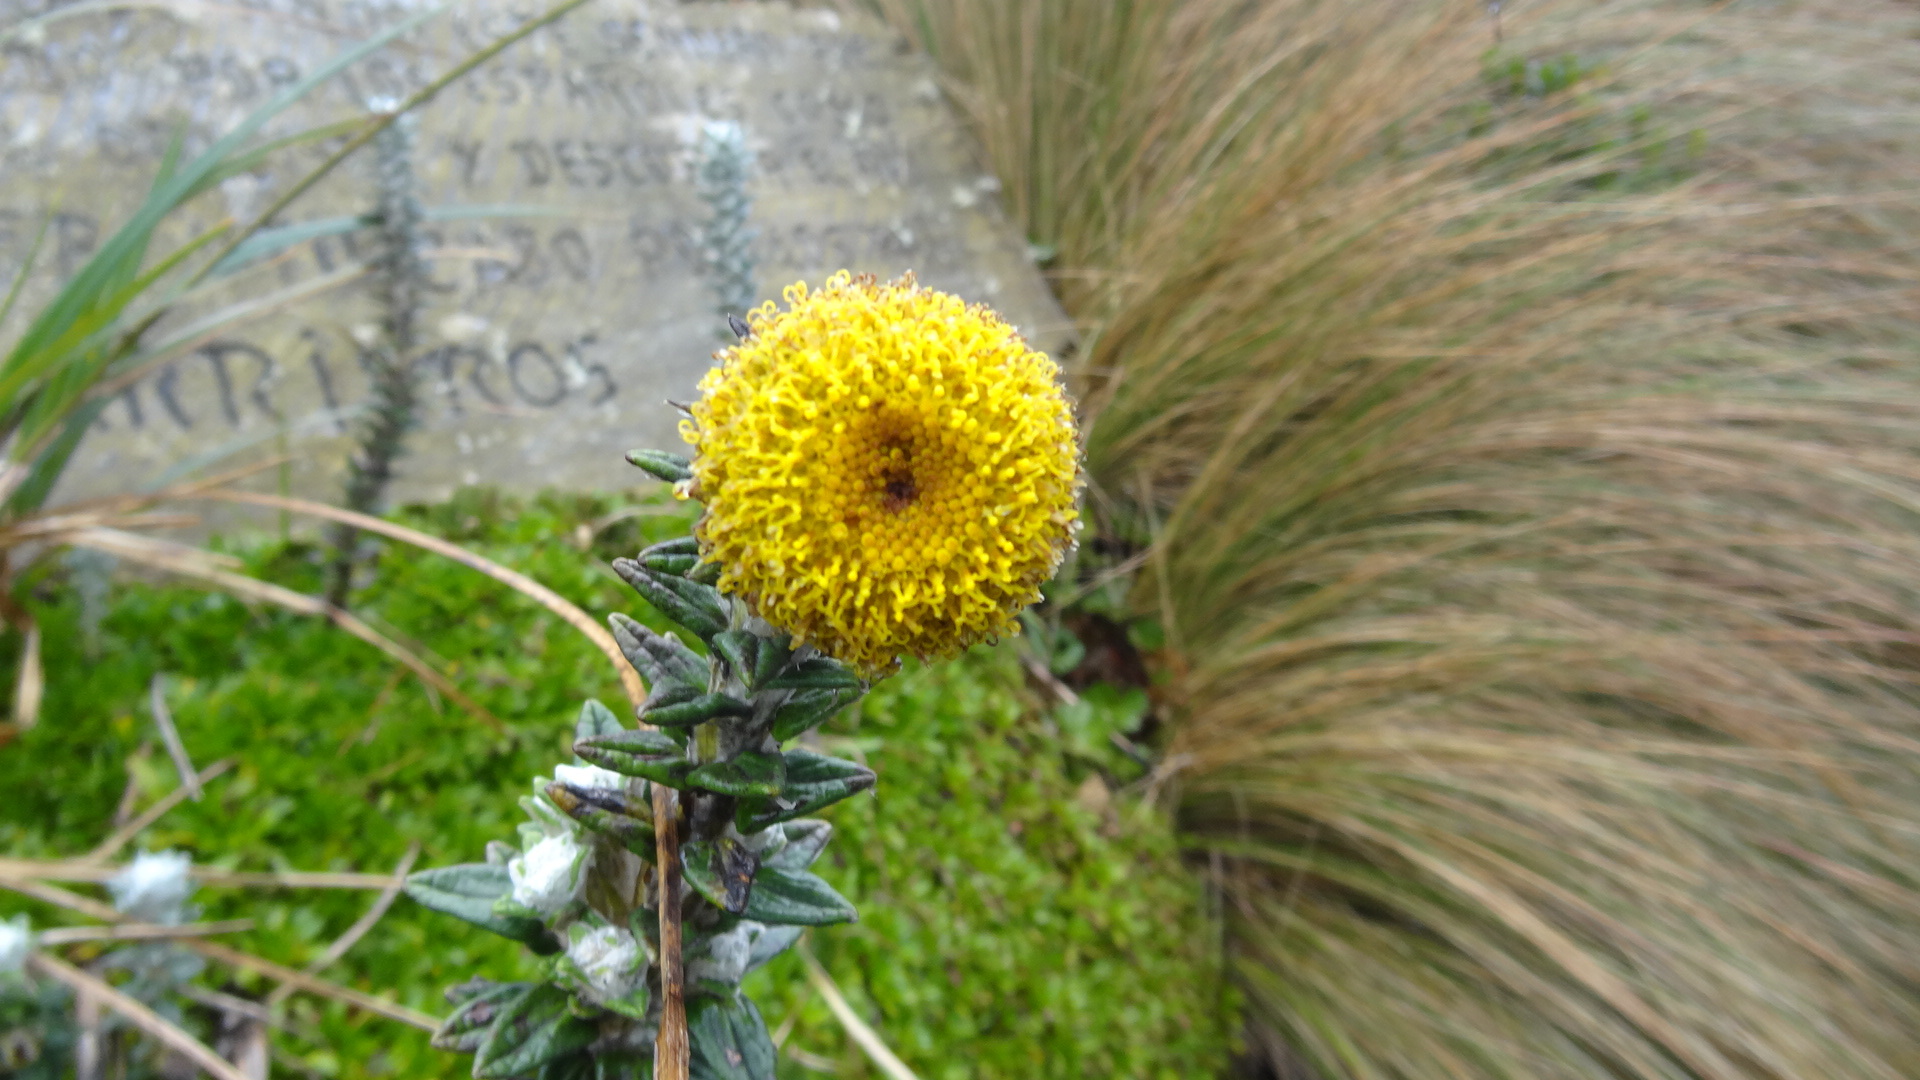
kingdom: Plantae
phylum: Tracheophyta
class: Magnoliopsida
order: Asterales
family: Asteraceae
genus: Lasiocephalus
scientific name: Lasiocephalus ovatus
